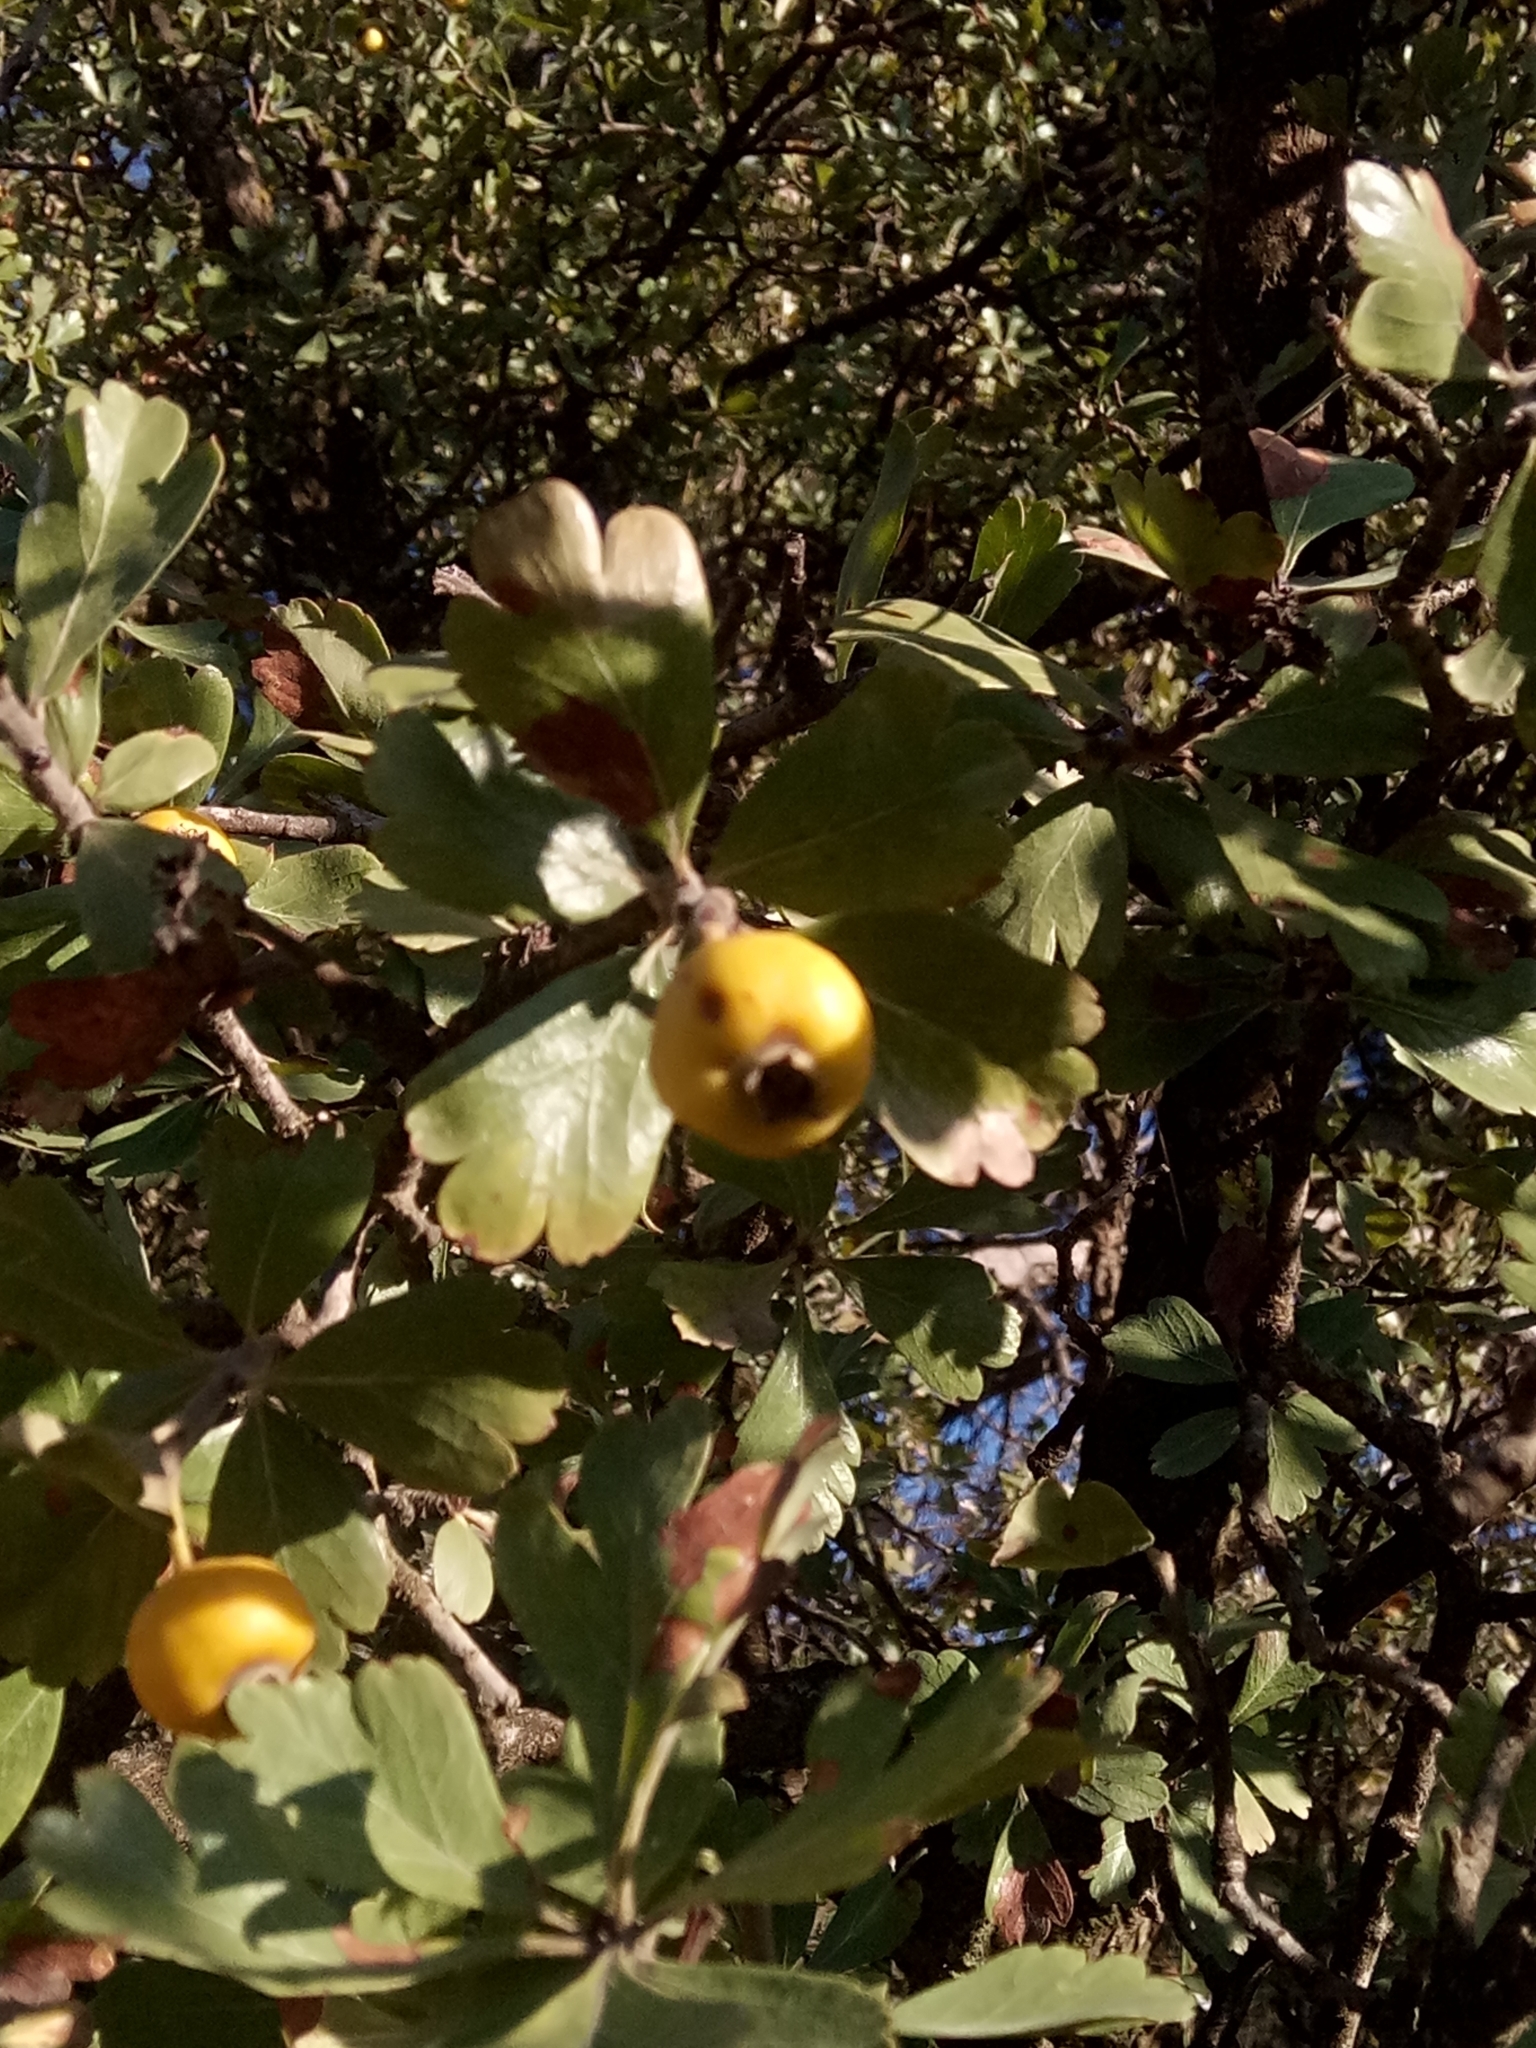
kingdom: Plantae
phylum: Tracheophyta
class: Magnoliopsida
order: Rosales
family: Rosaceae
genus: Crataegus
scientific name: Crataegus azarolus
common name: Azarole
